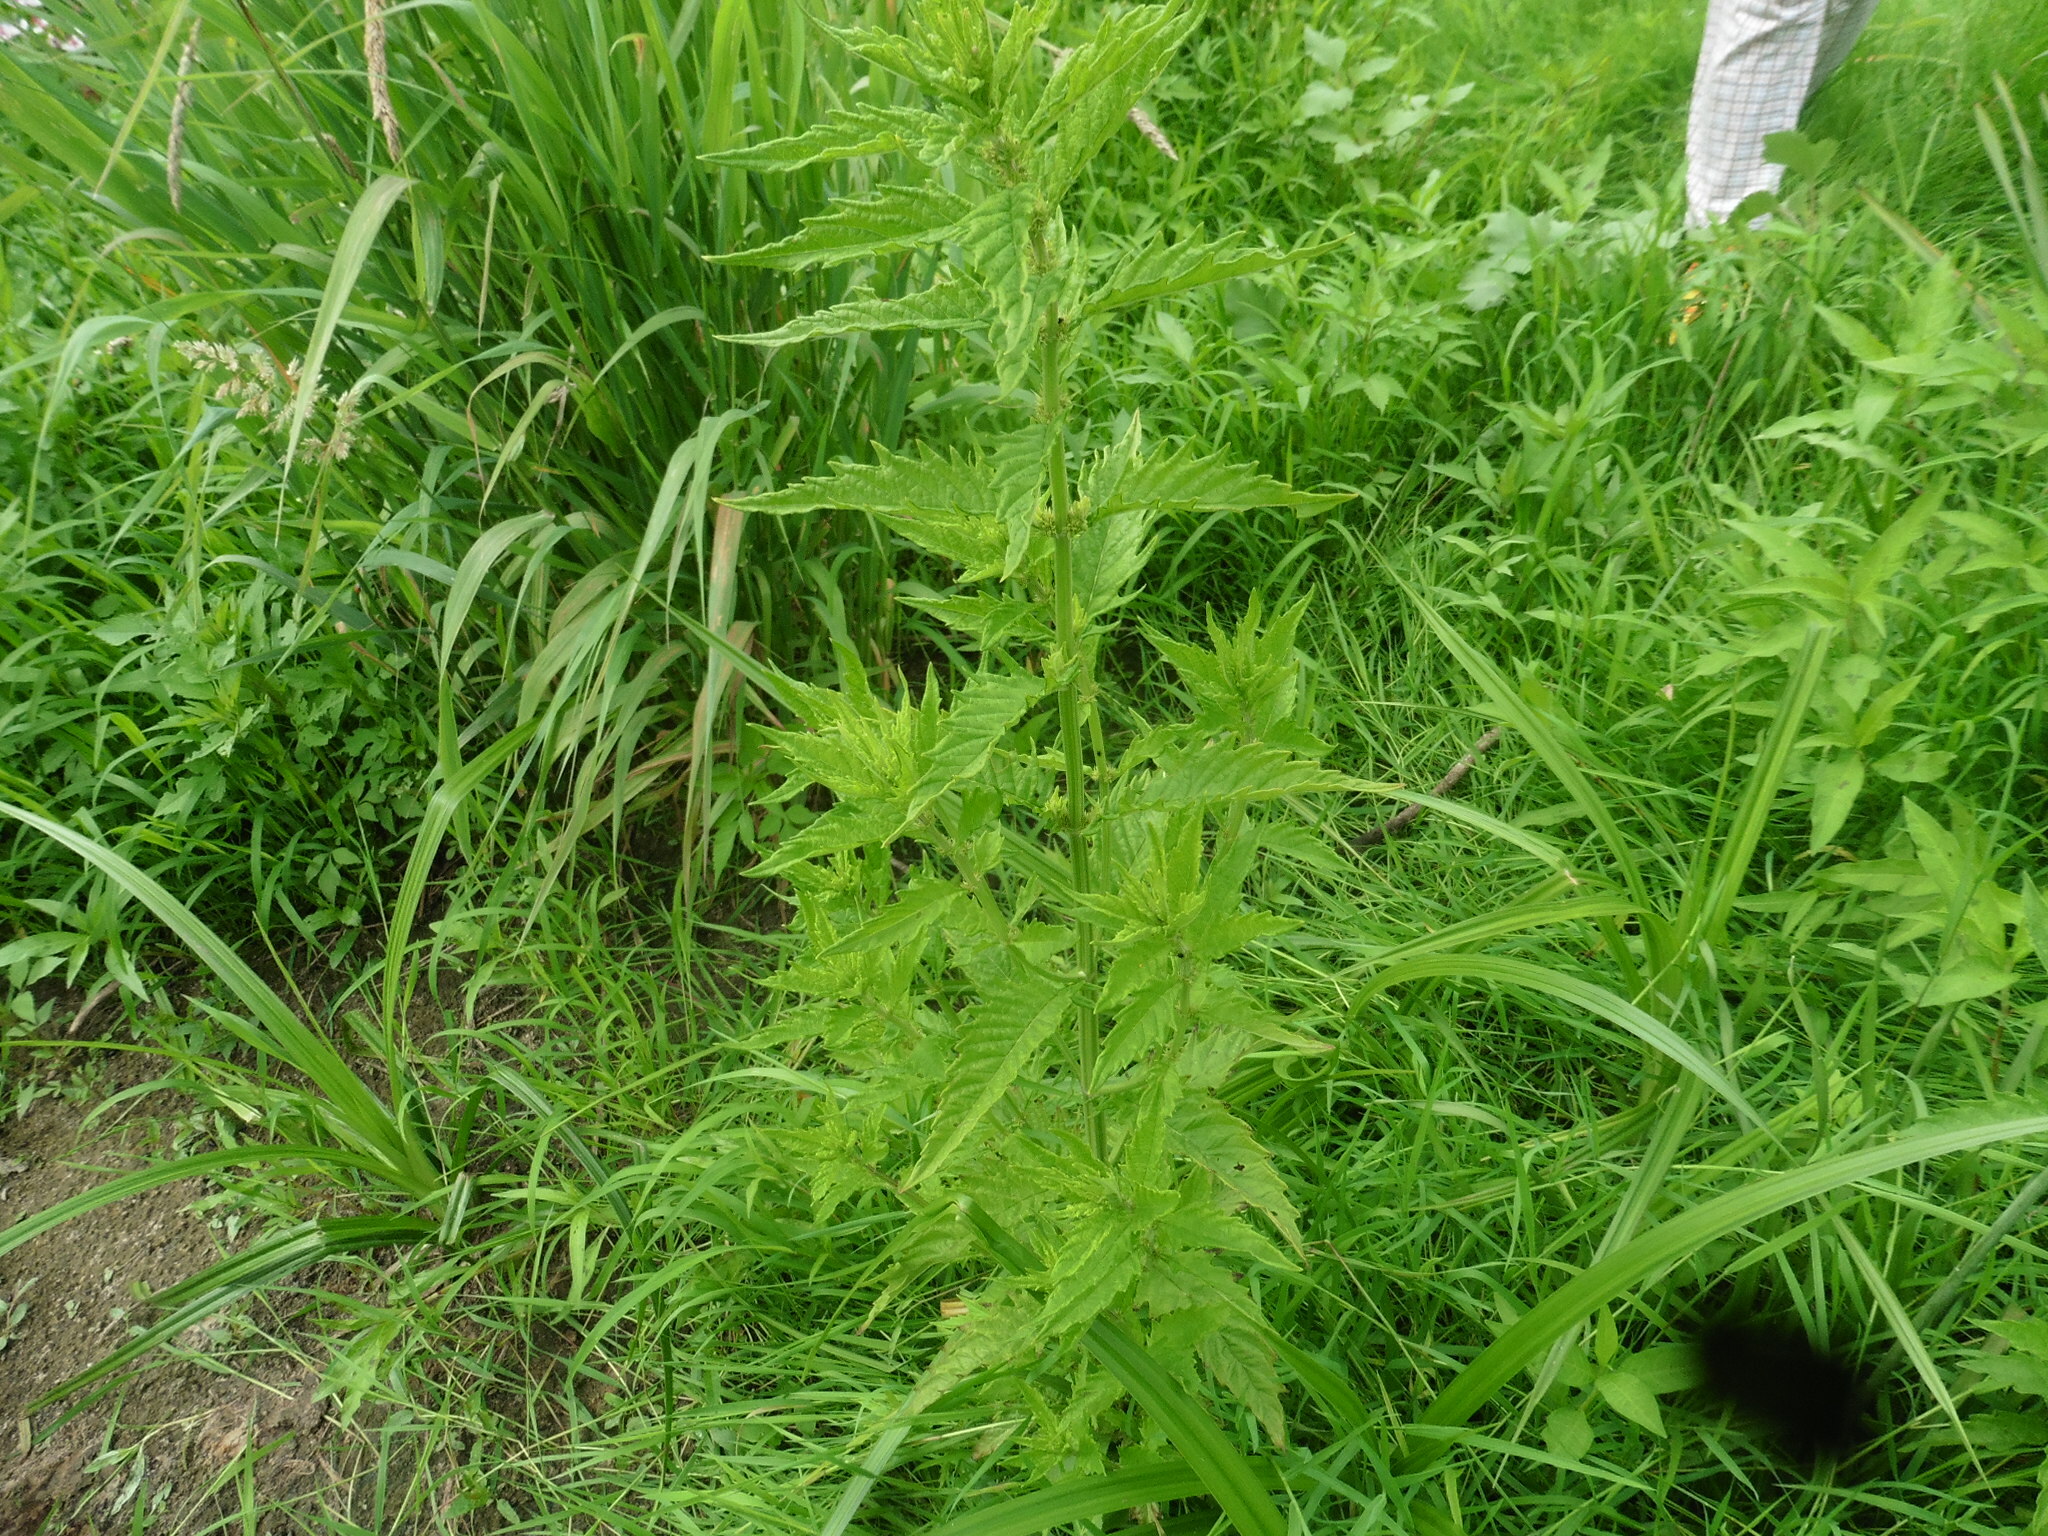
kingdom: Plantae
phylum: Tracheophyta
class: Magnoliopsida
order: Lamiales
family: Lamiaceae
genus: Lycopus
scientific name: Lycopus europaeus
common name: European bugleweed
